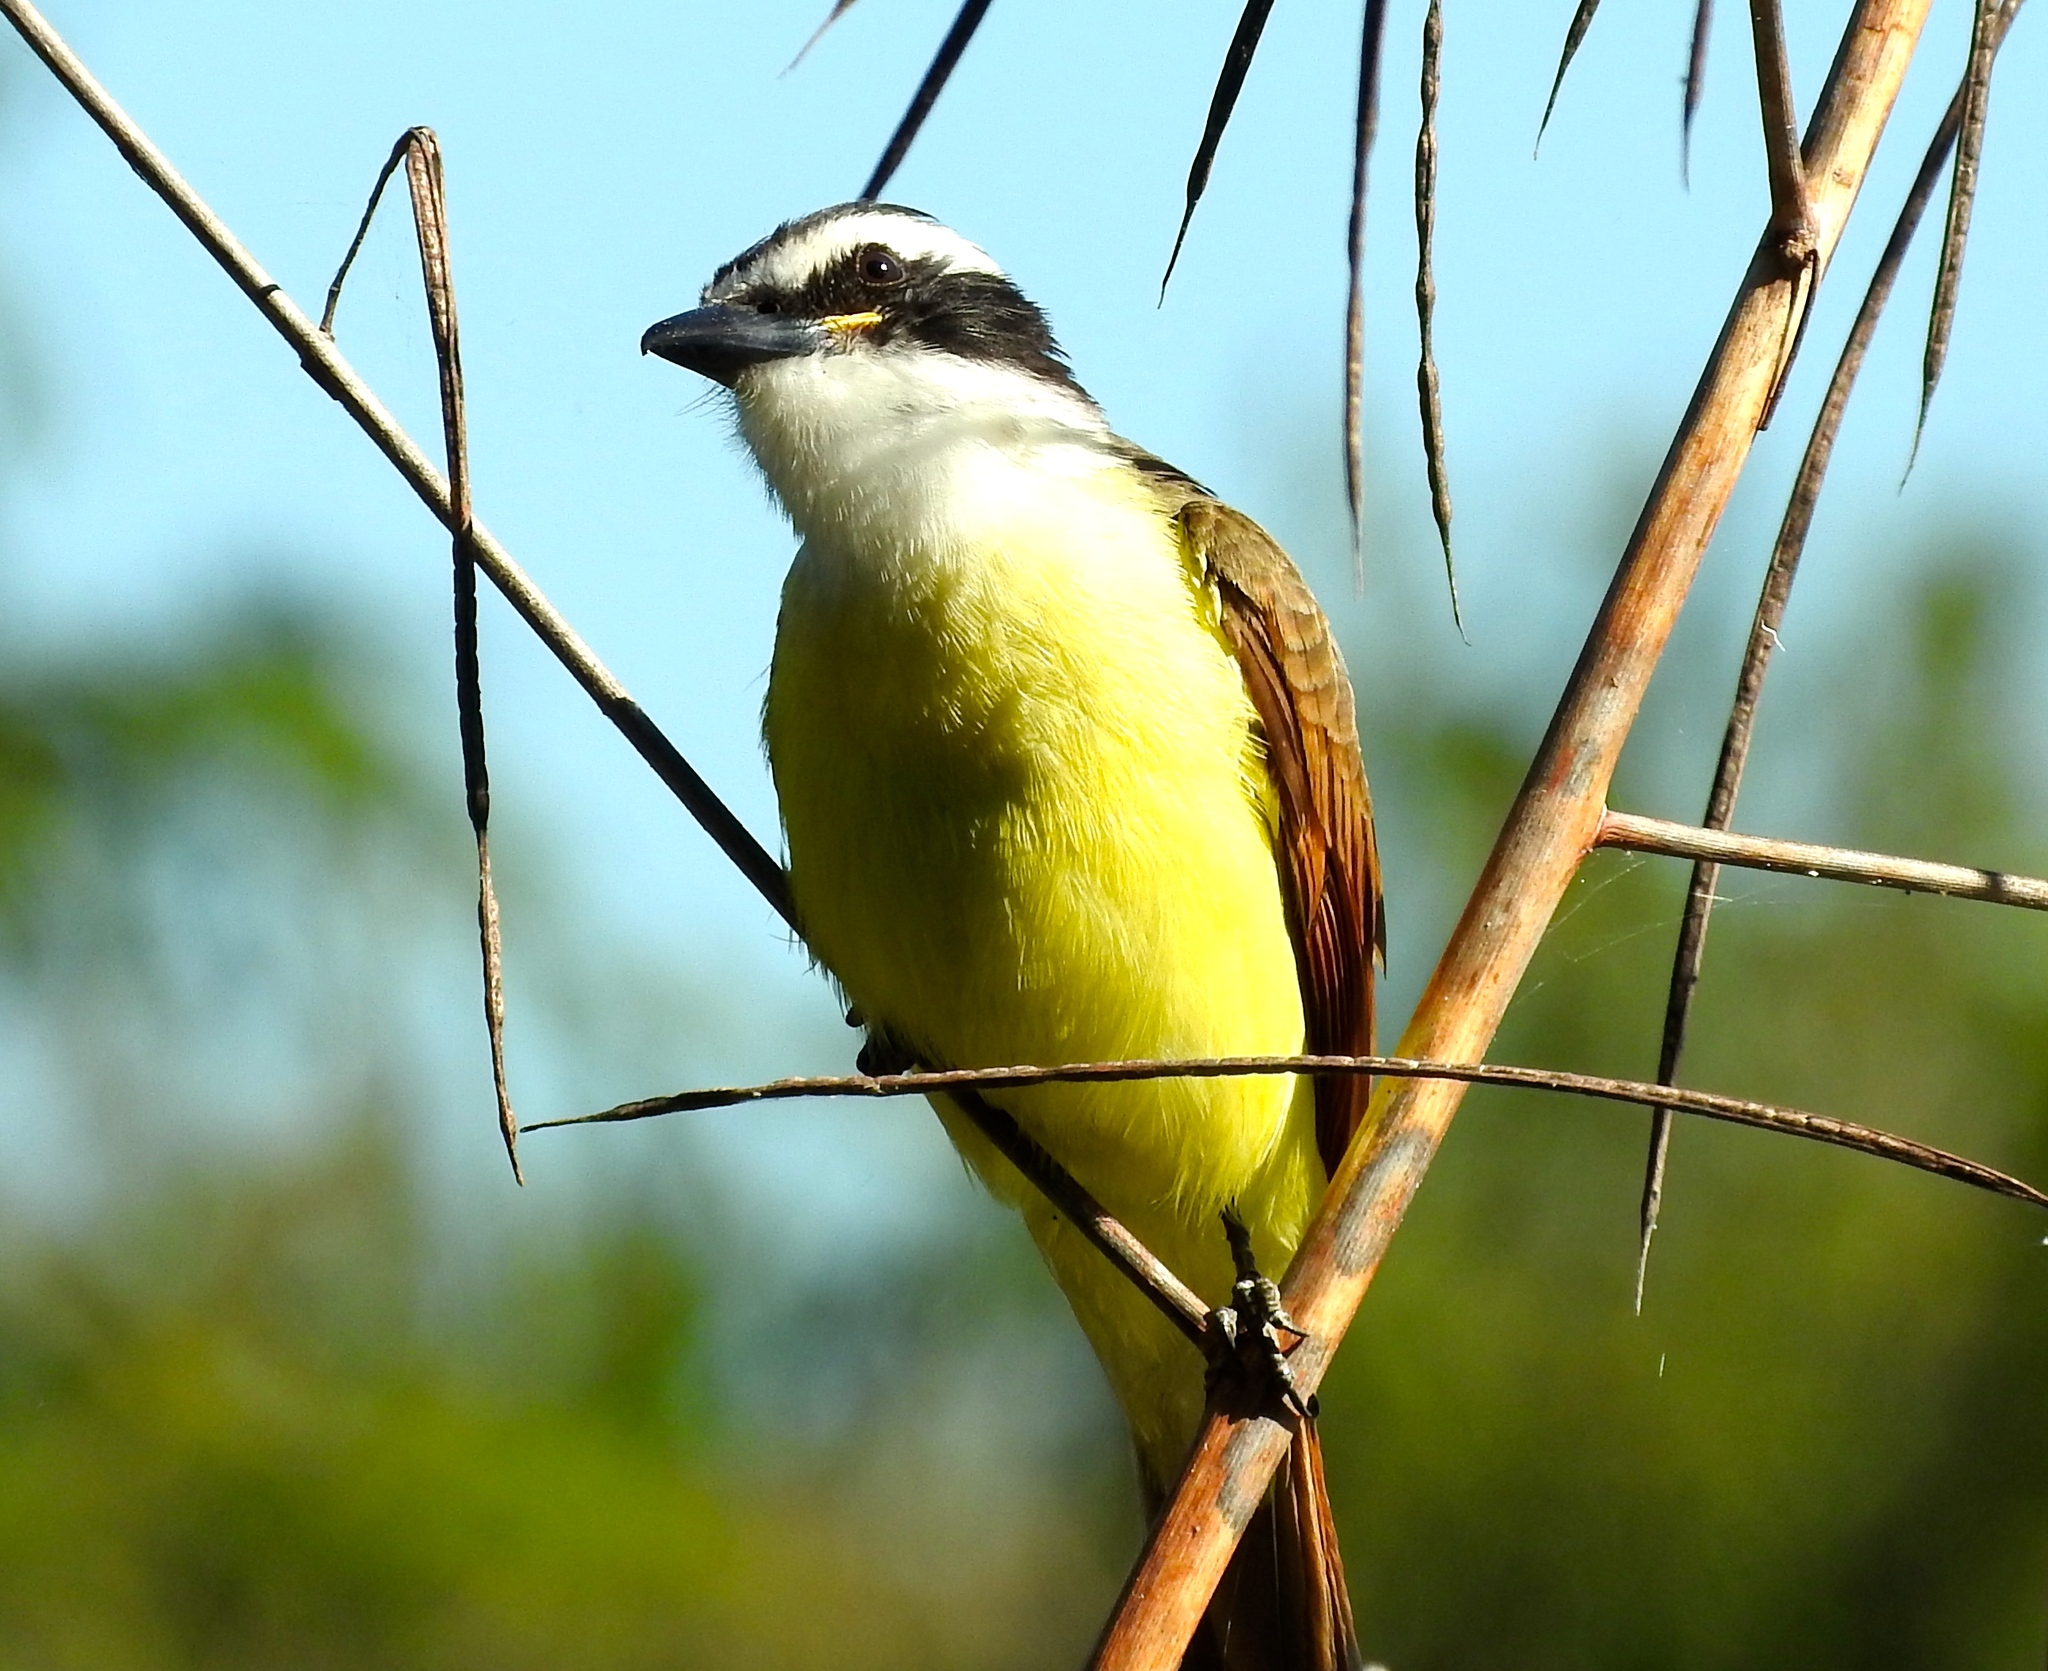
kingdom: Animalia
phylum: Chordata
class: Aves
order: Passeriformes
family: Tyrannidae
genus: Pitangus
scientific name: Pitangus sulphuratus
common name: Great kiskadee
